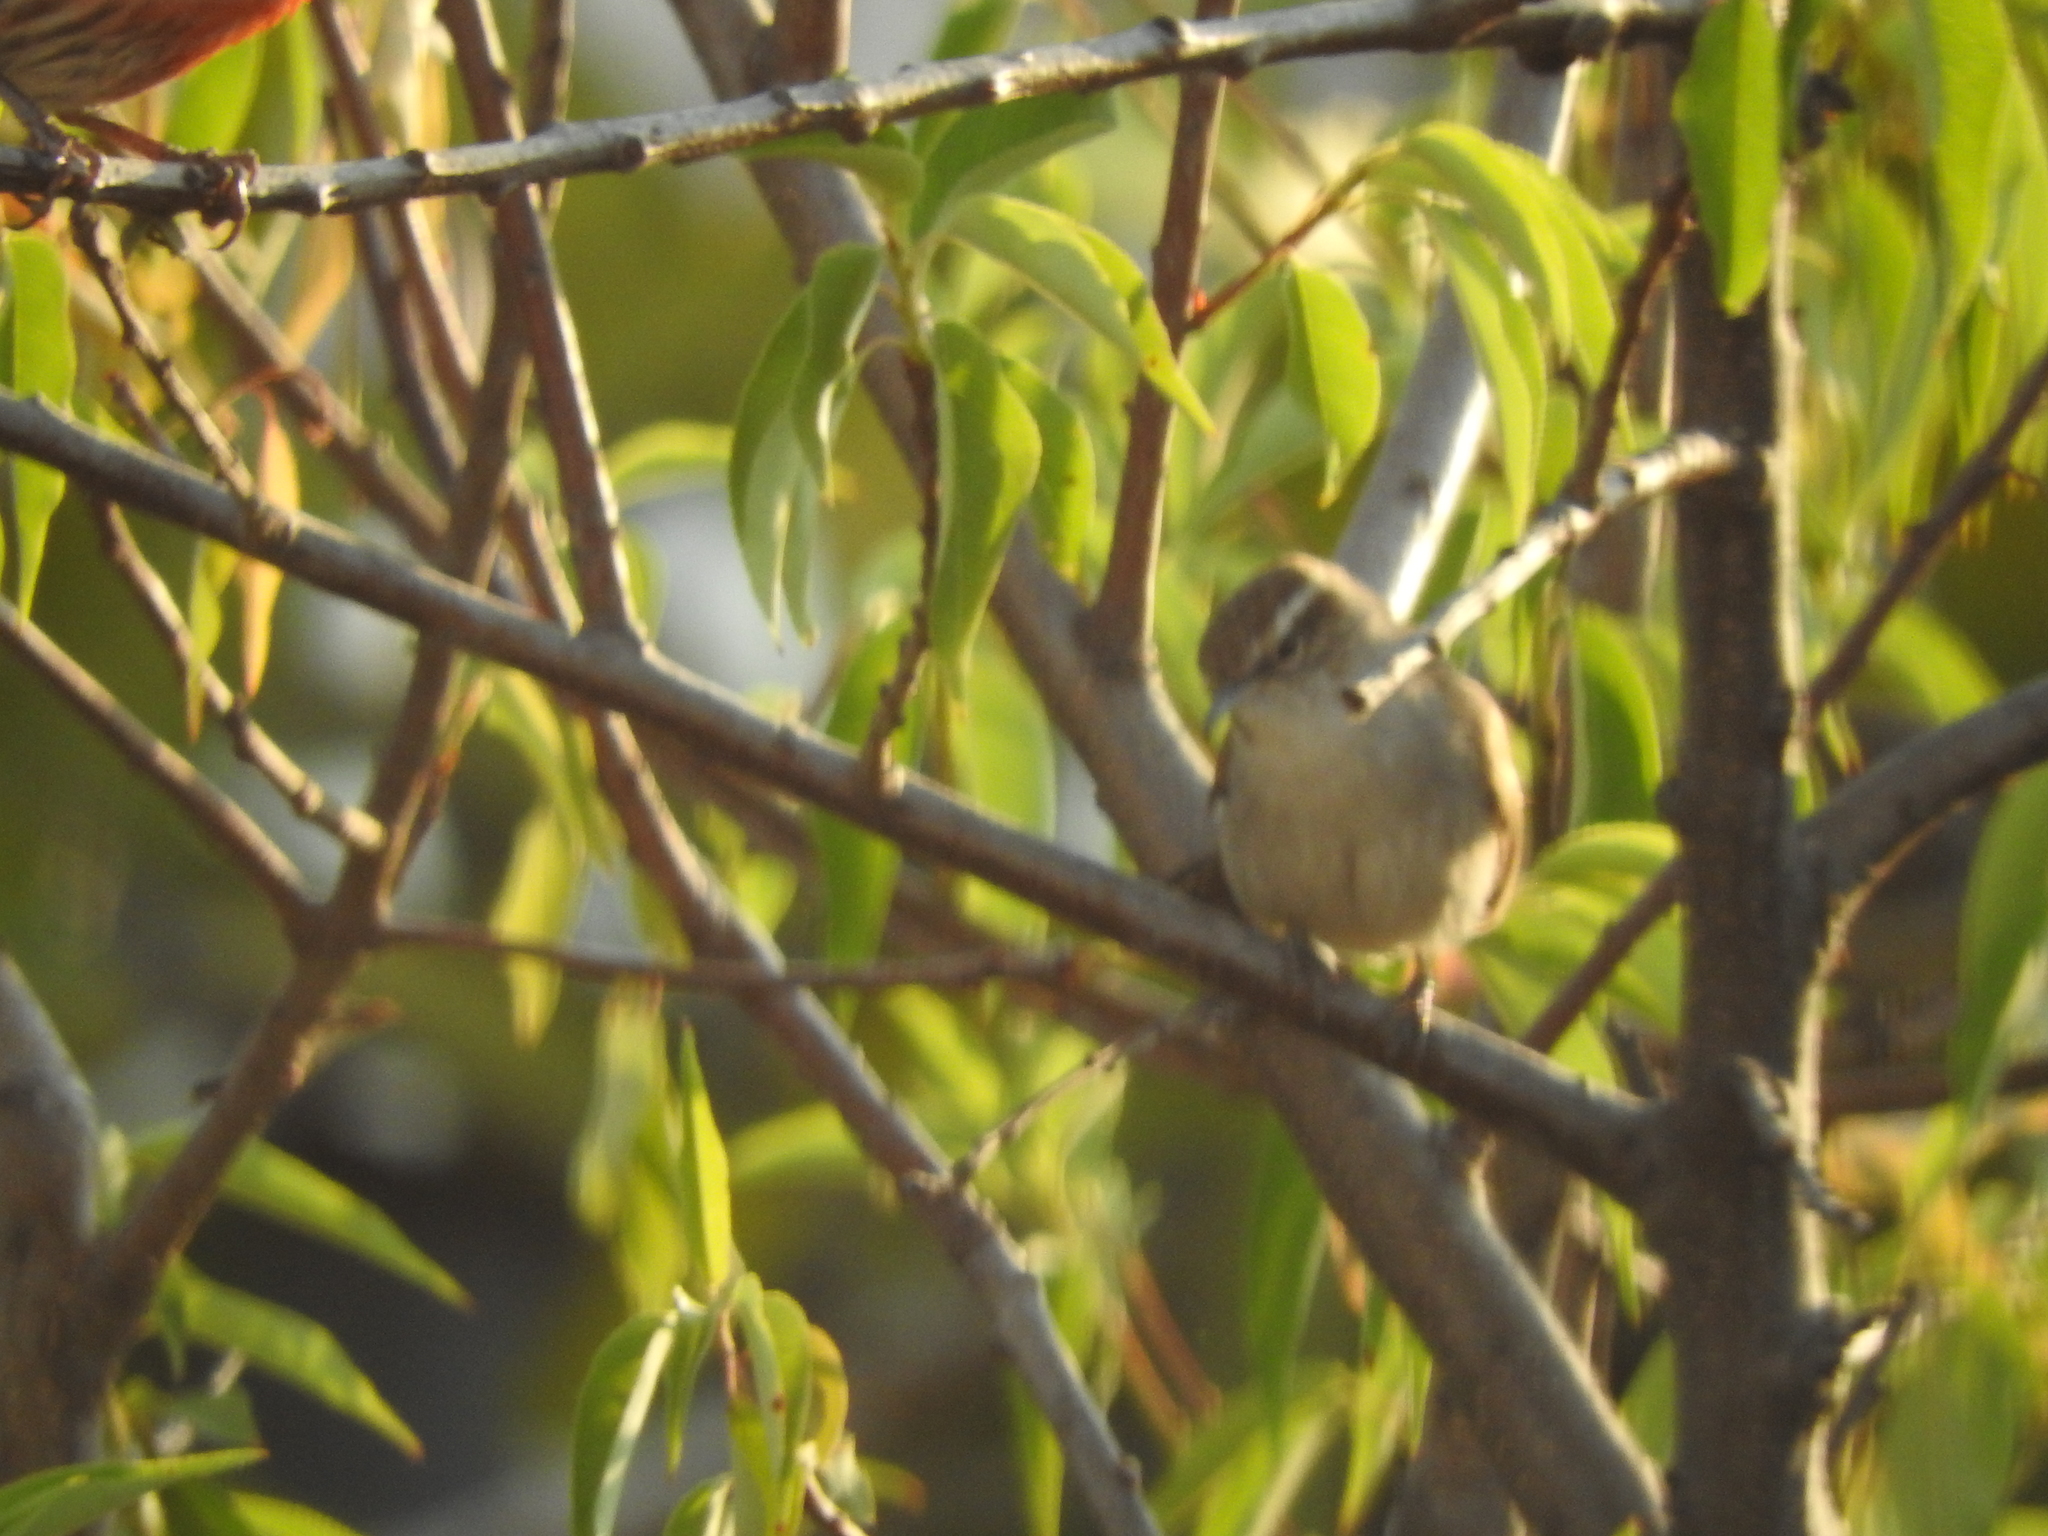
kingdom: Animalia
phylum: Chordata
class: Aves
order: Passeriformes
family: Troglodytidae
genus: Thryomanes
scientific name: Thryomanes bewickii
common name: Bewick's wren
